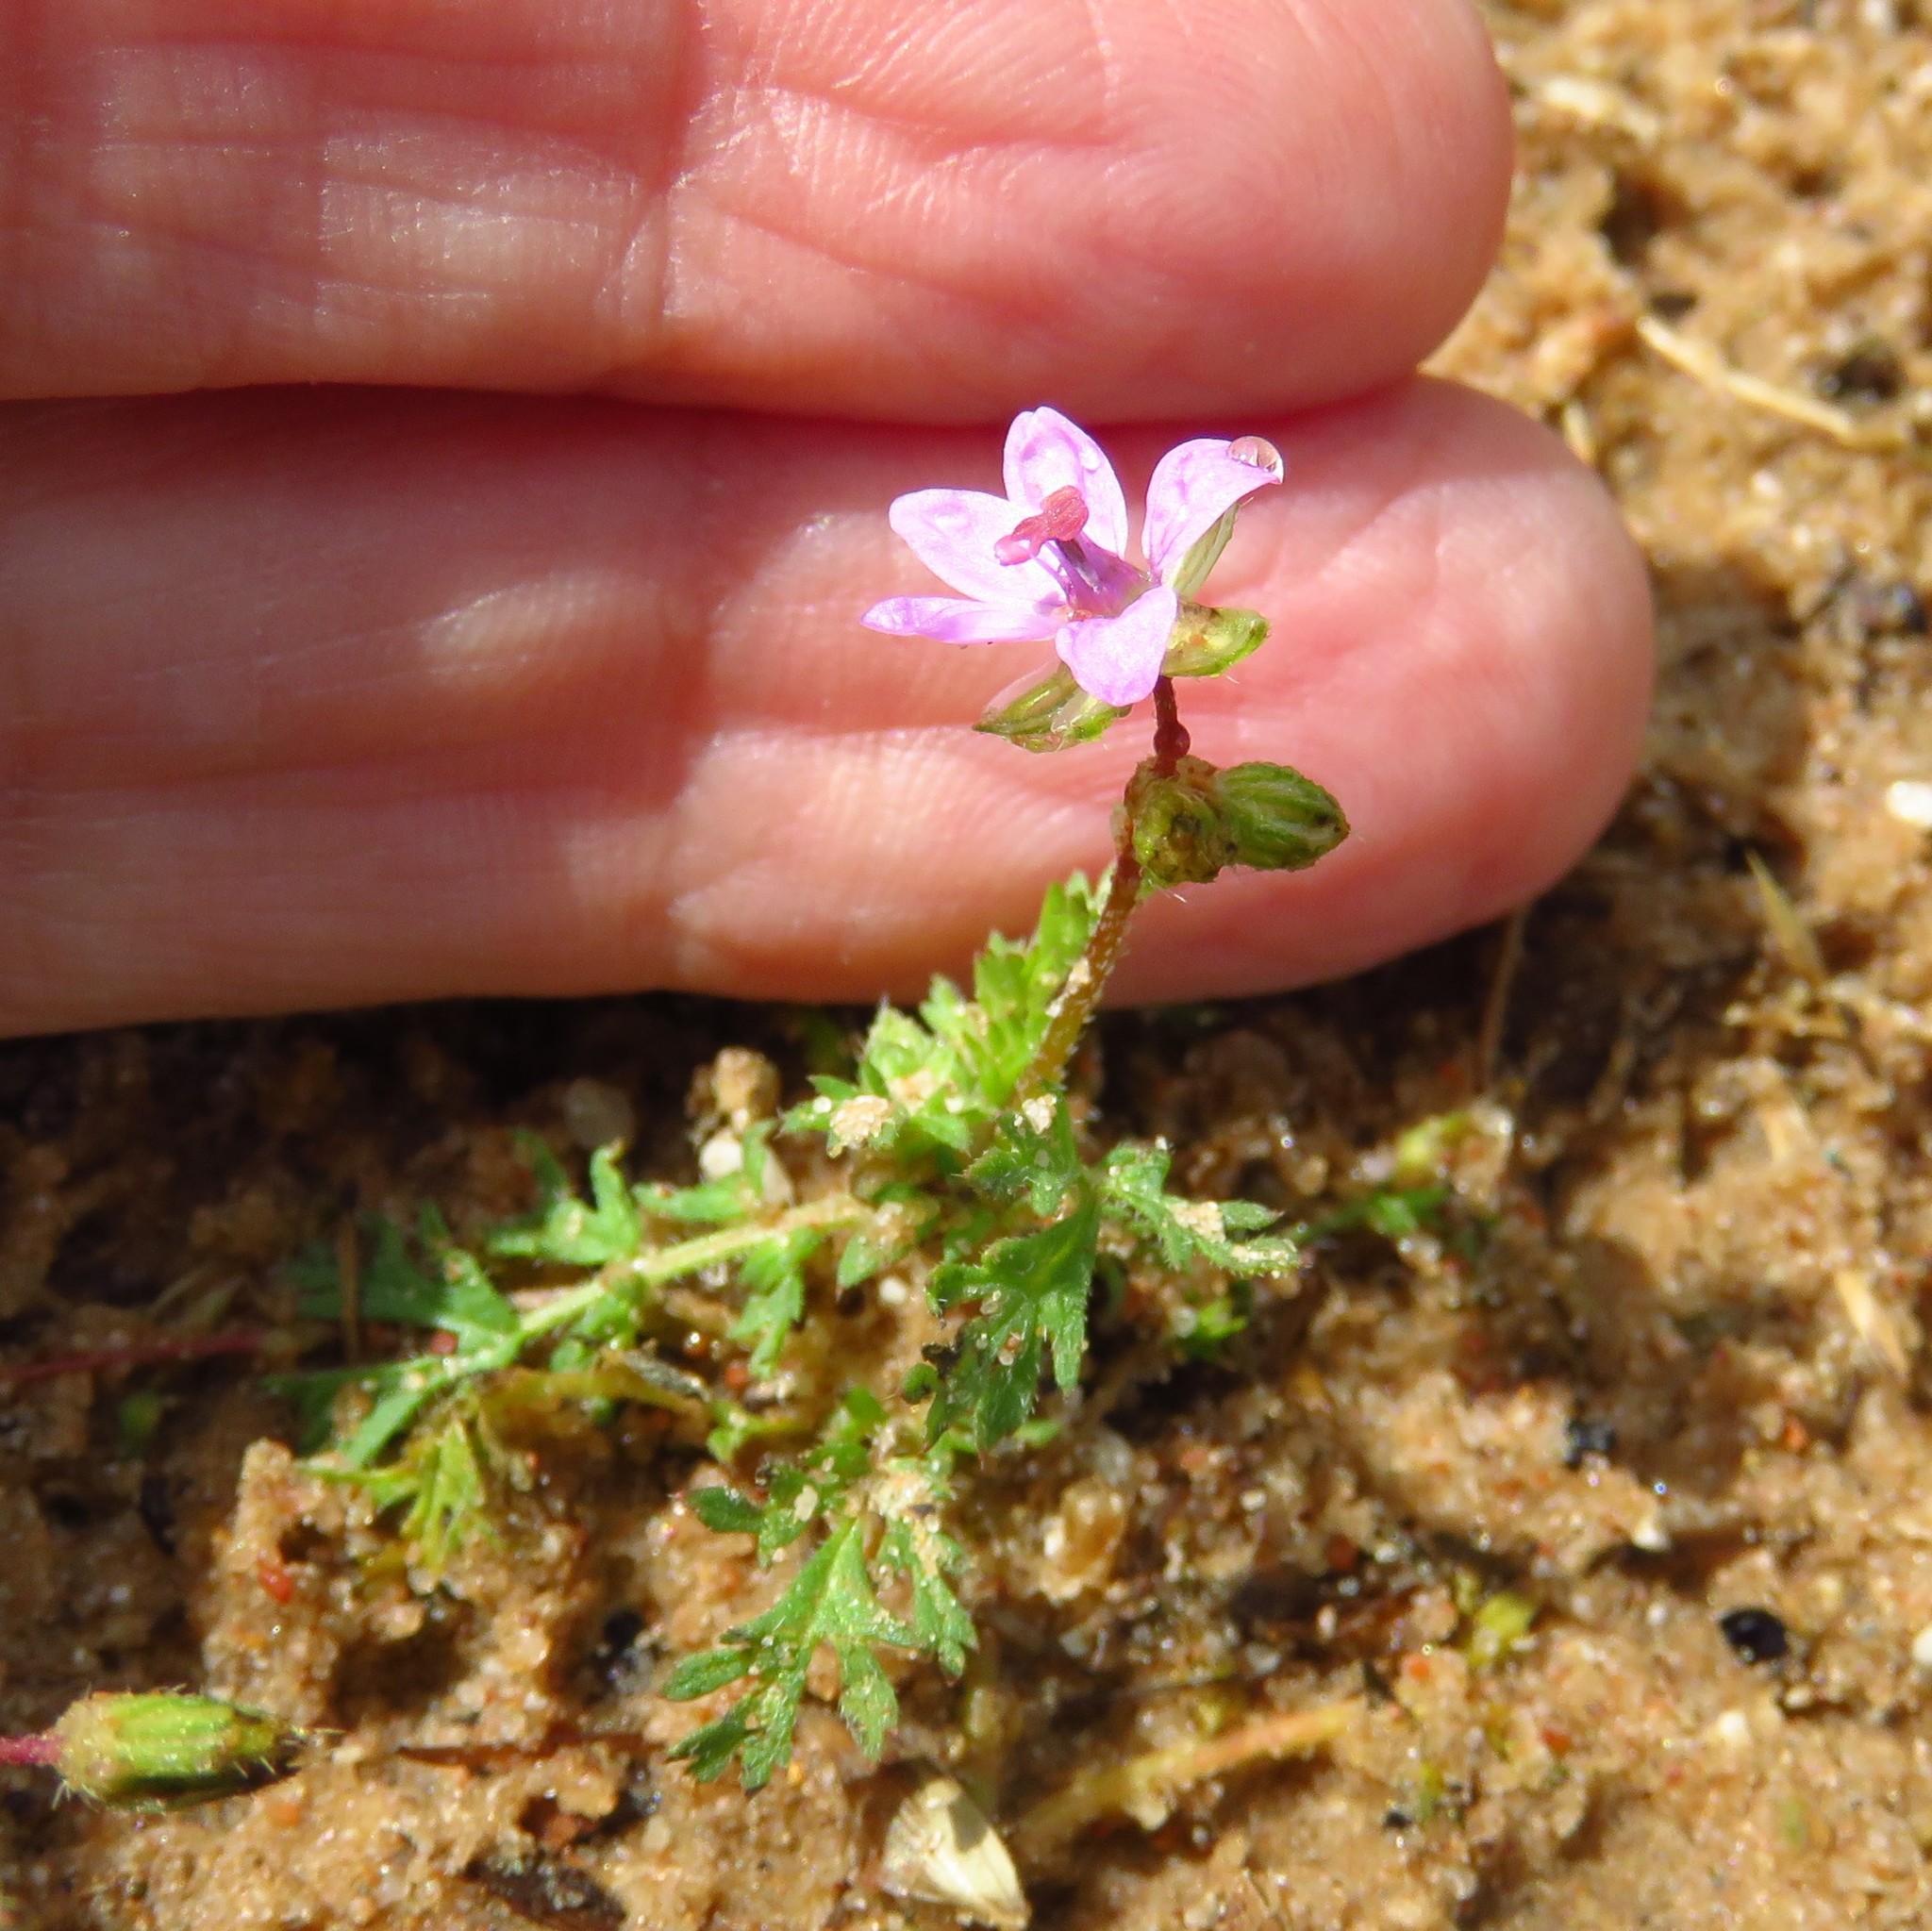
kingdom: Plantae
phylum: Tracheophyta
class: Magnoliopsida
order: Geraniales
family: Geraniaceae
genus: Erodium
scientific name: Erodium cicutarium
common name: Common stork's-bill
